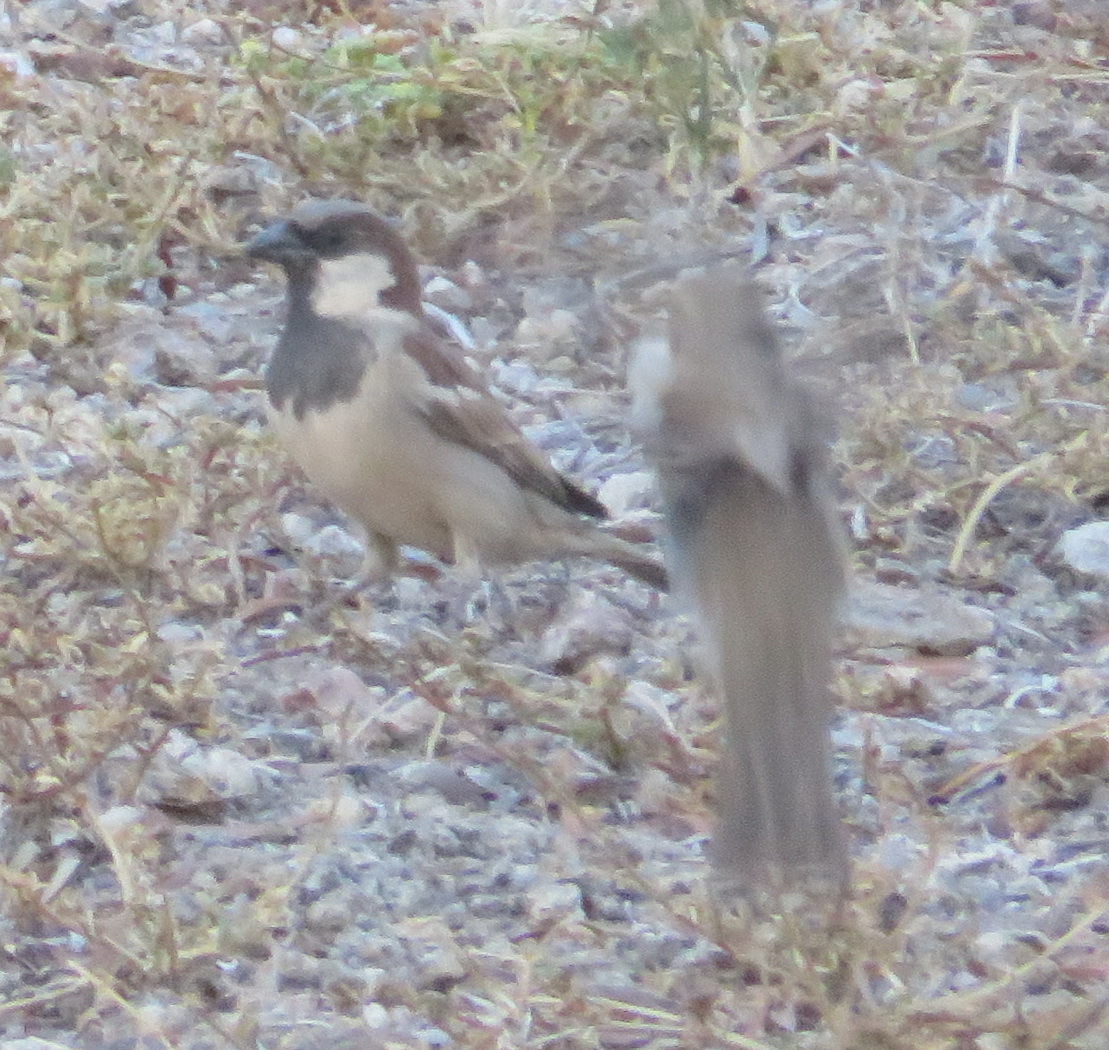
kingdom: Animalia
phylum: Chordata
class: Aves
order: Passeriformes
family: Passeridae
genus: Passer
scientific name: Passer melanurus
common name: Cape sparrow
